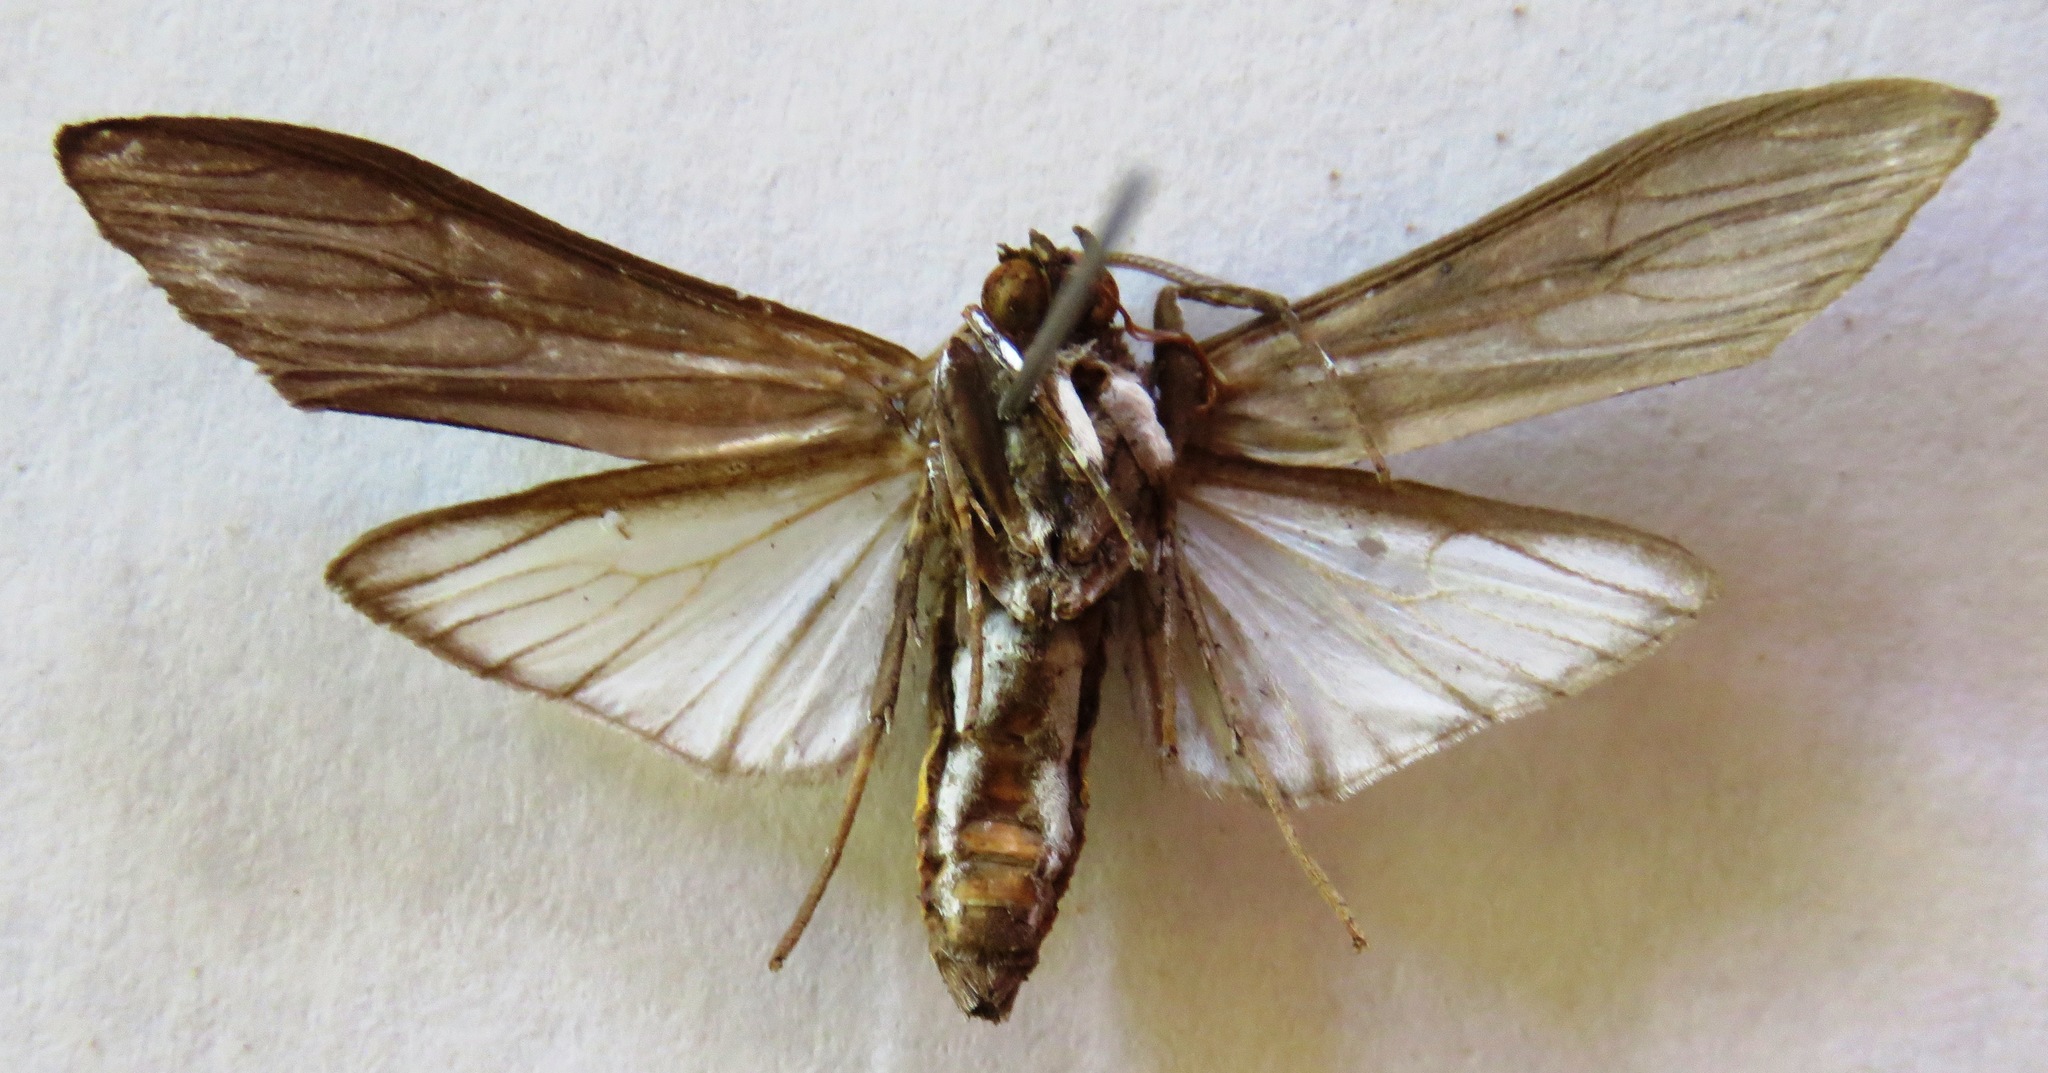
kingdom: Animalia
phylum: Arthropoda
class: Insecta
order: Lepidoptera
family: Erebidae
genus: Hyaleucerea
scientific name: Hyaleucerea gigantea
